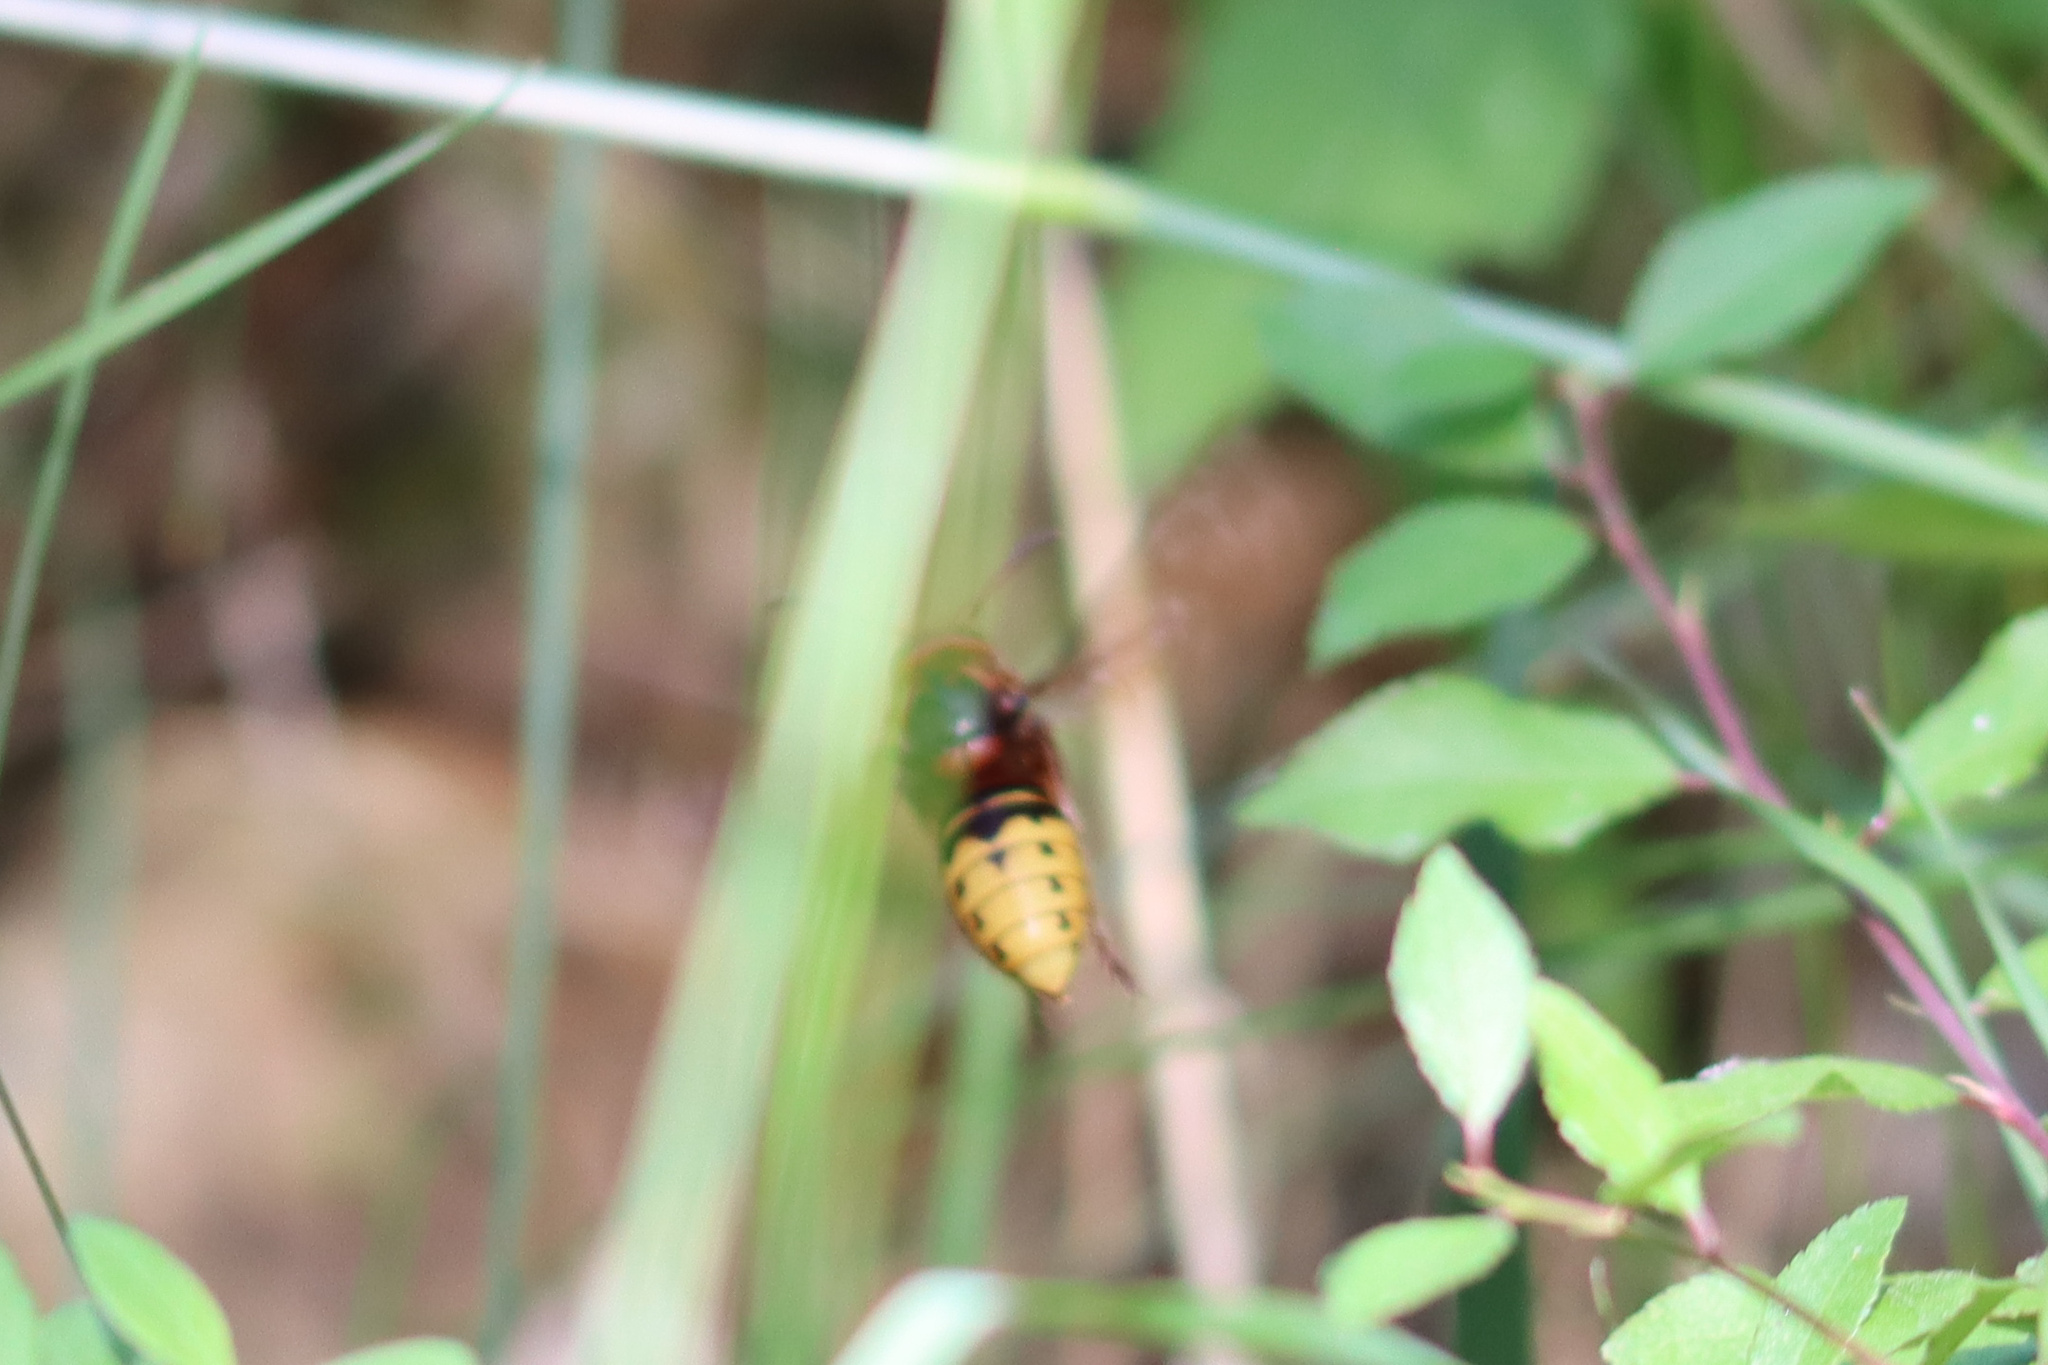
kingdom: Animalia
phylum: Arthropoda
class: Insecta
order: Hymenoptera
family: Vespidae
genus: Vespa
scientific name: Vespa crabro
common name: Hornet
